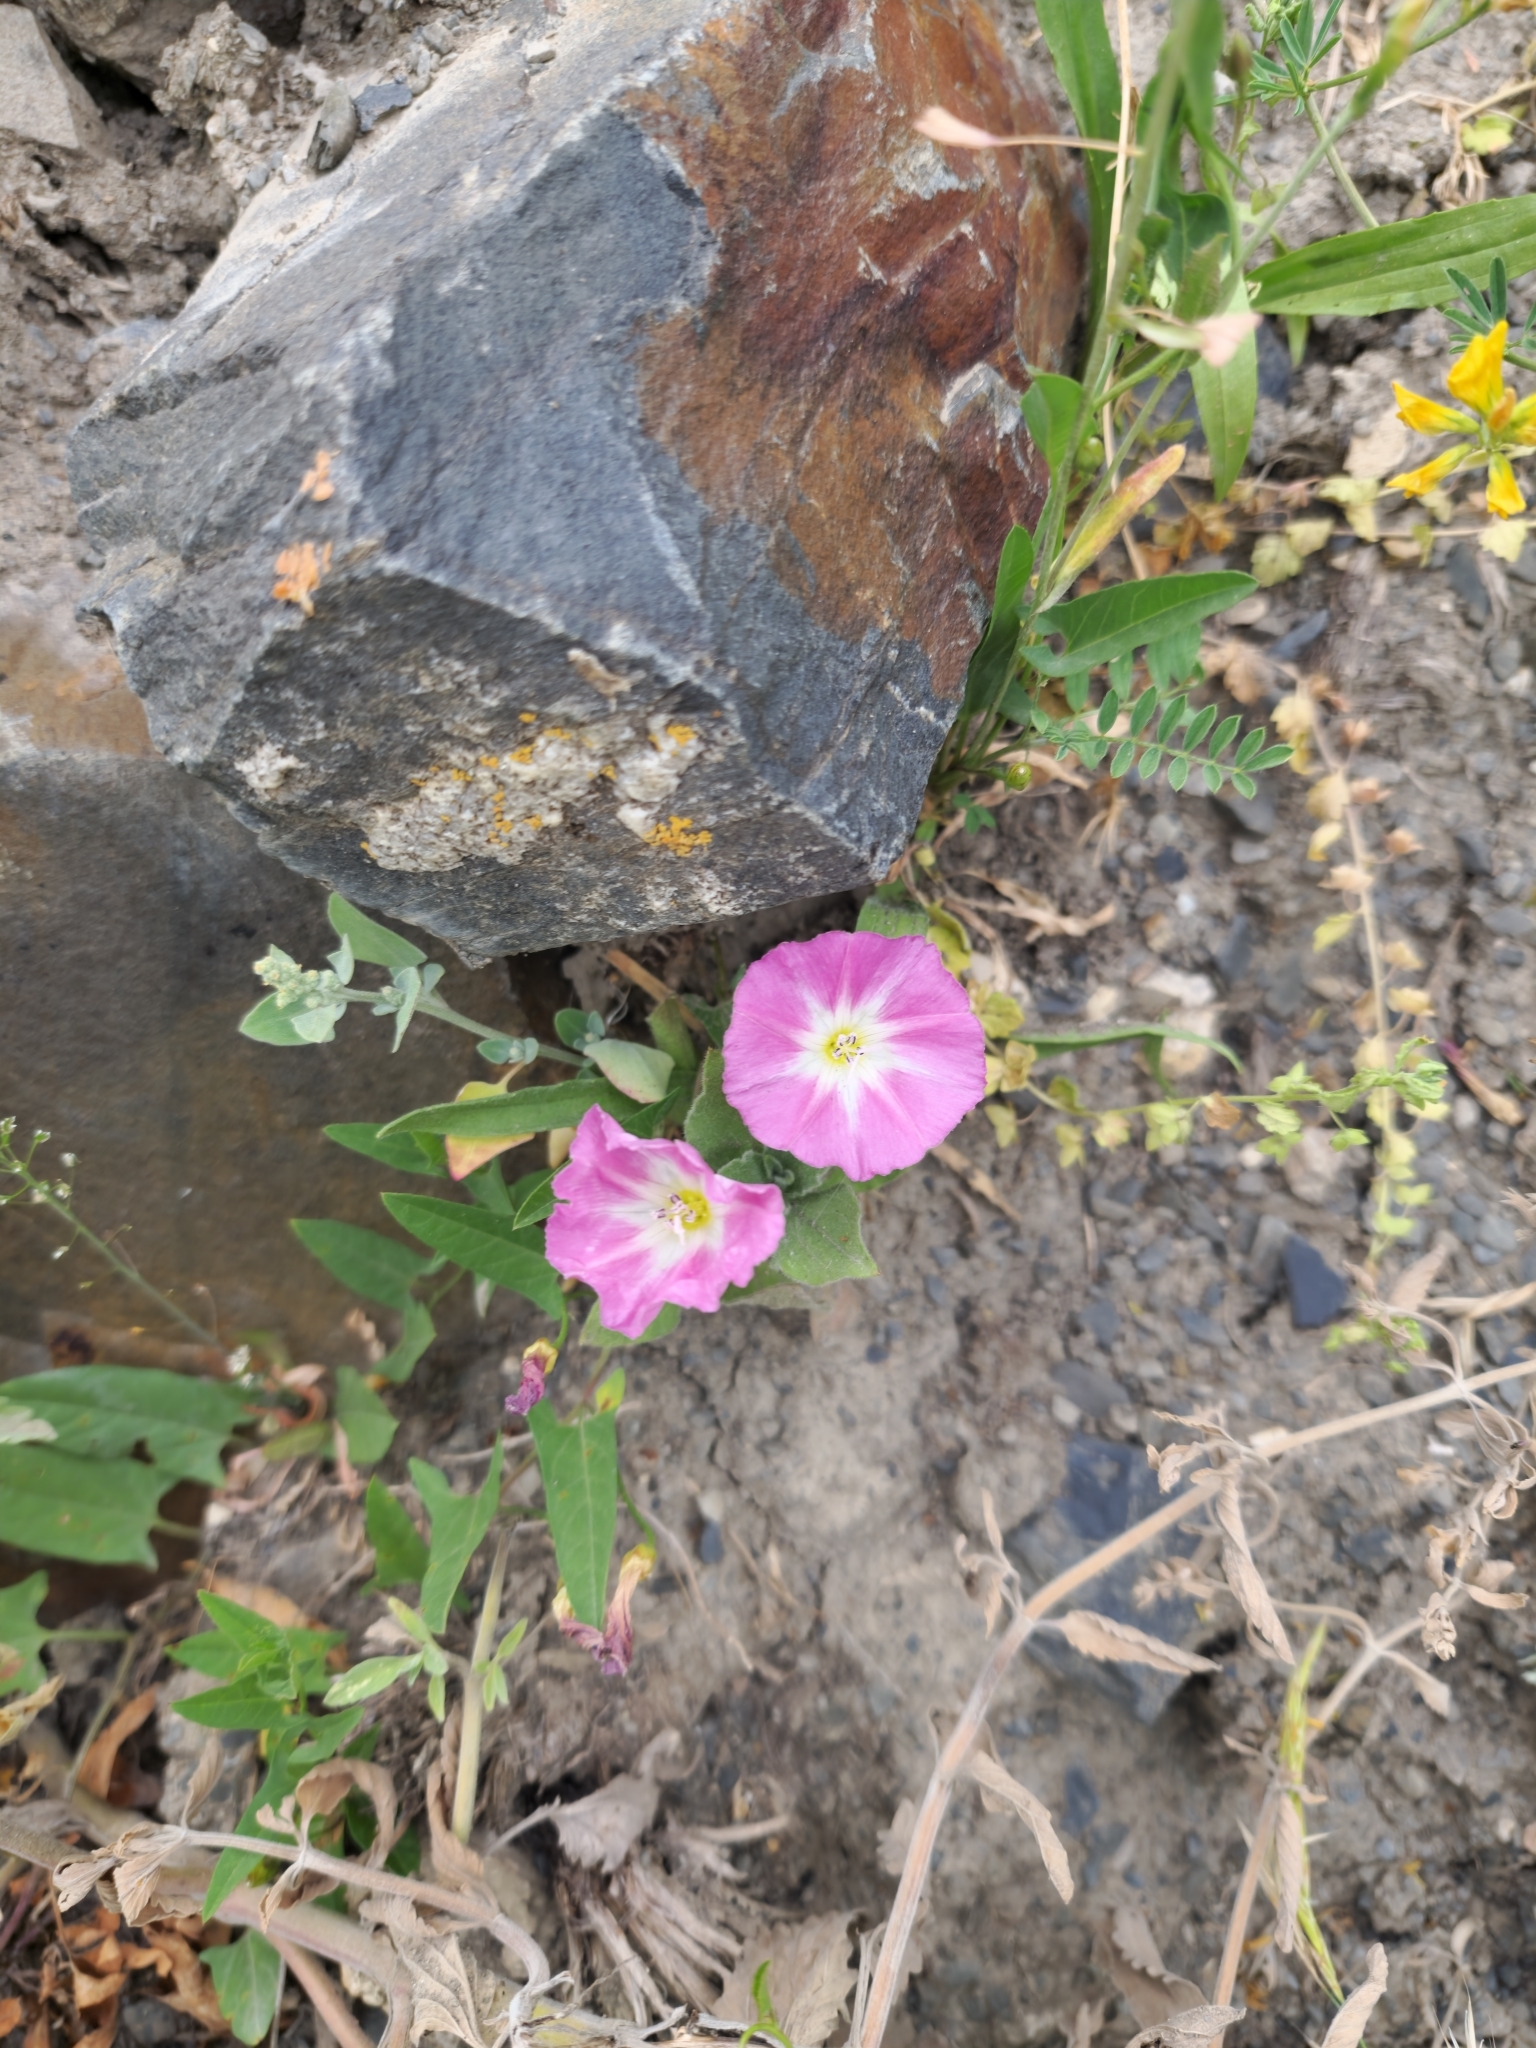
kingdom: Plantae
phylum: Tracheophyta
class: Magnoliopsida
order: Solanales
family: Convolvulaceae
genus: Convolvulus
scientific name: Convolvulus arvensis
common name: Field bindweed
